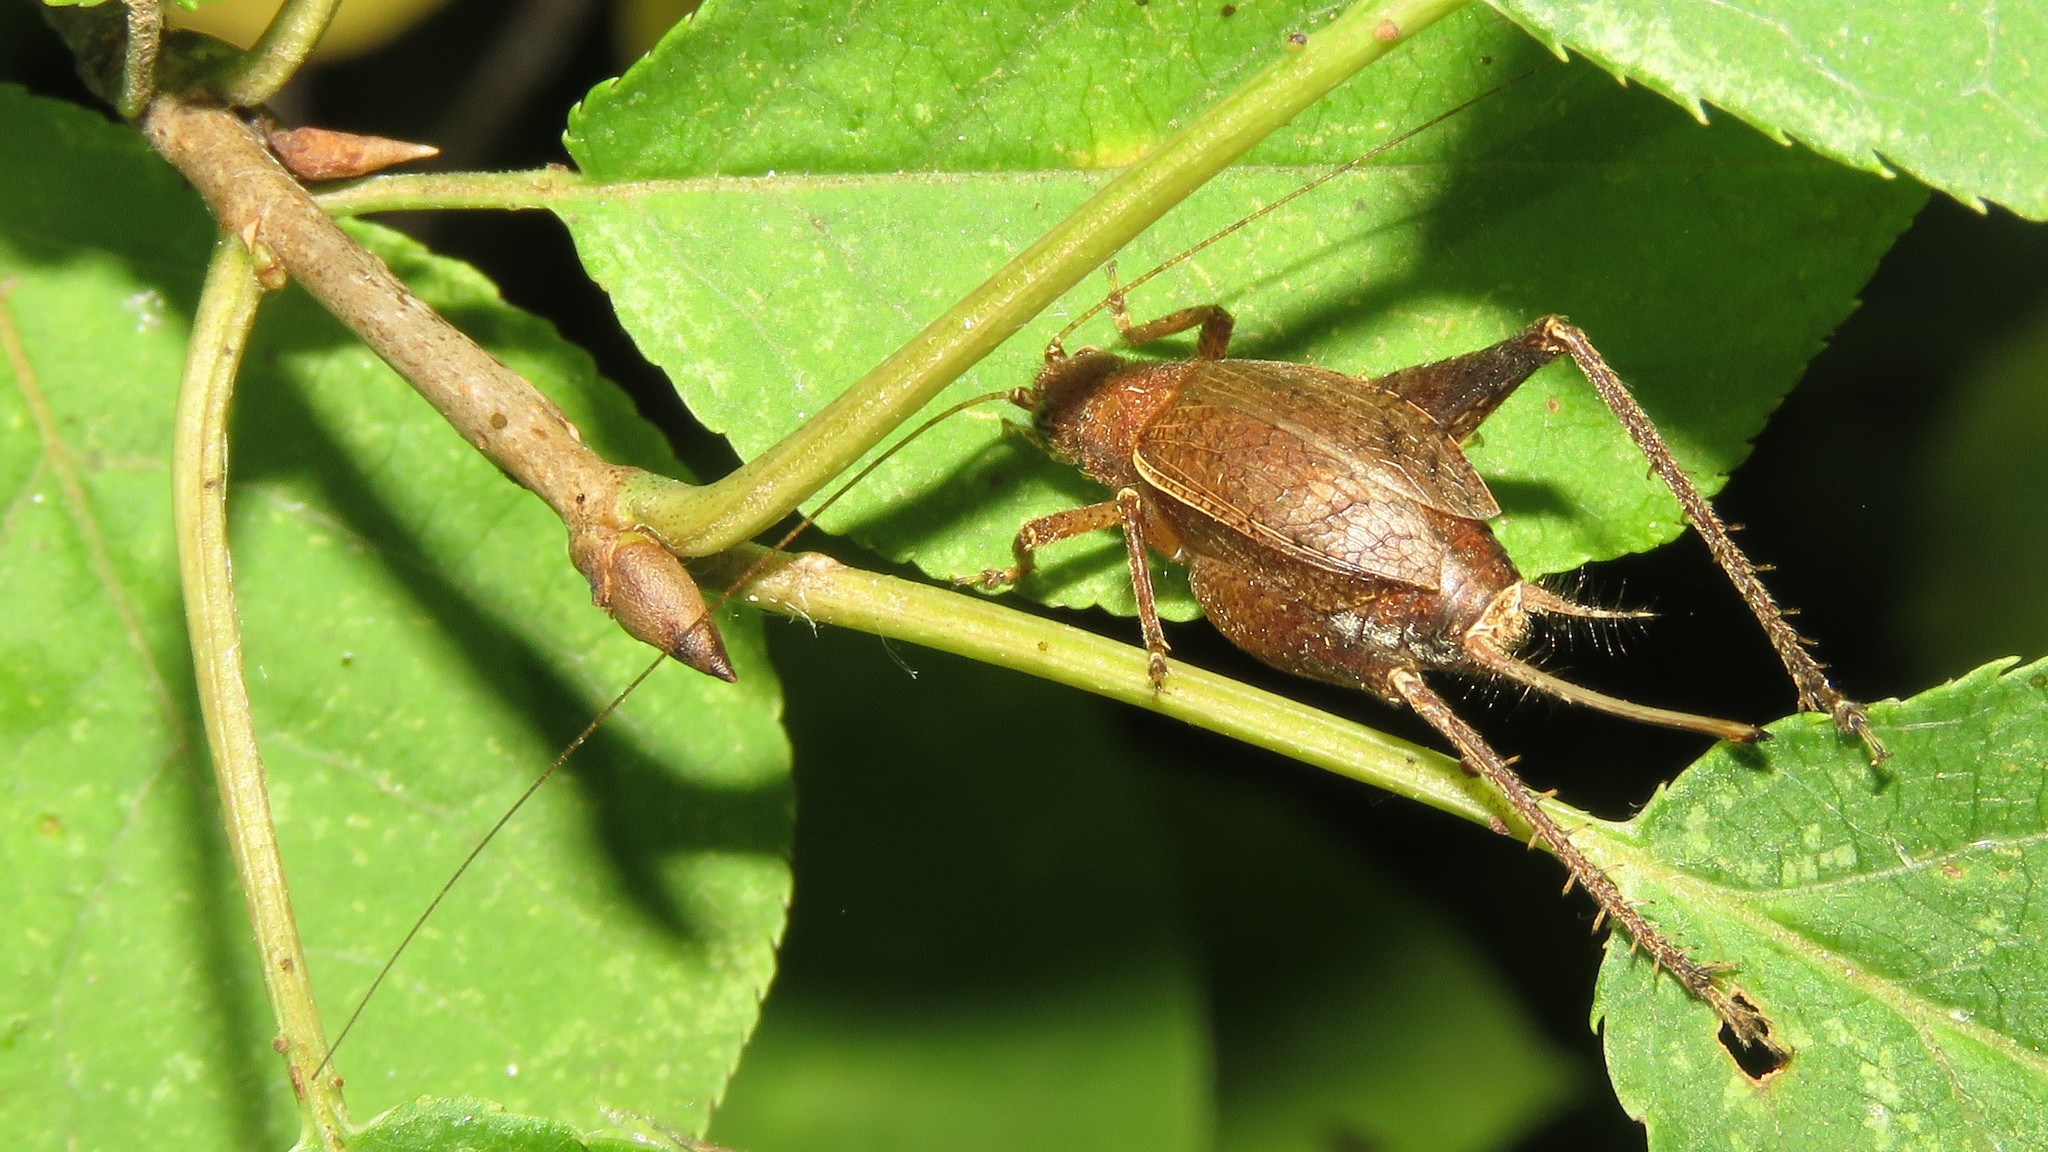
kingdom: Animalia
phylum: Arthropoda
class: Insecta
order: Orthoptera
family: Gryllidae
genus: Hapithus
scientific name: Hapithus agitator
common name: Restless bush cricket
